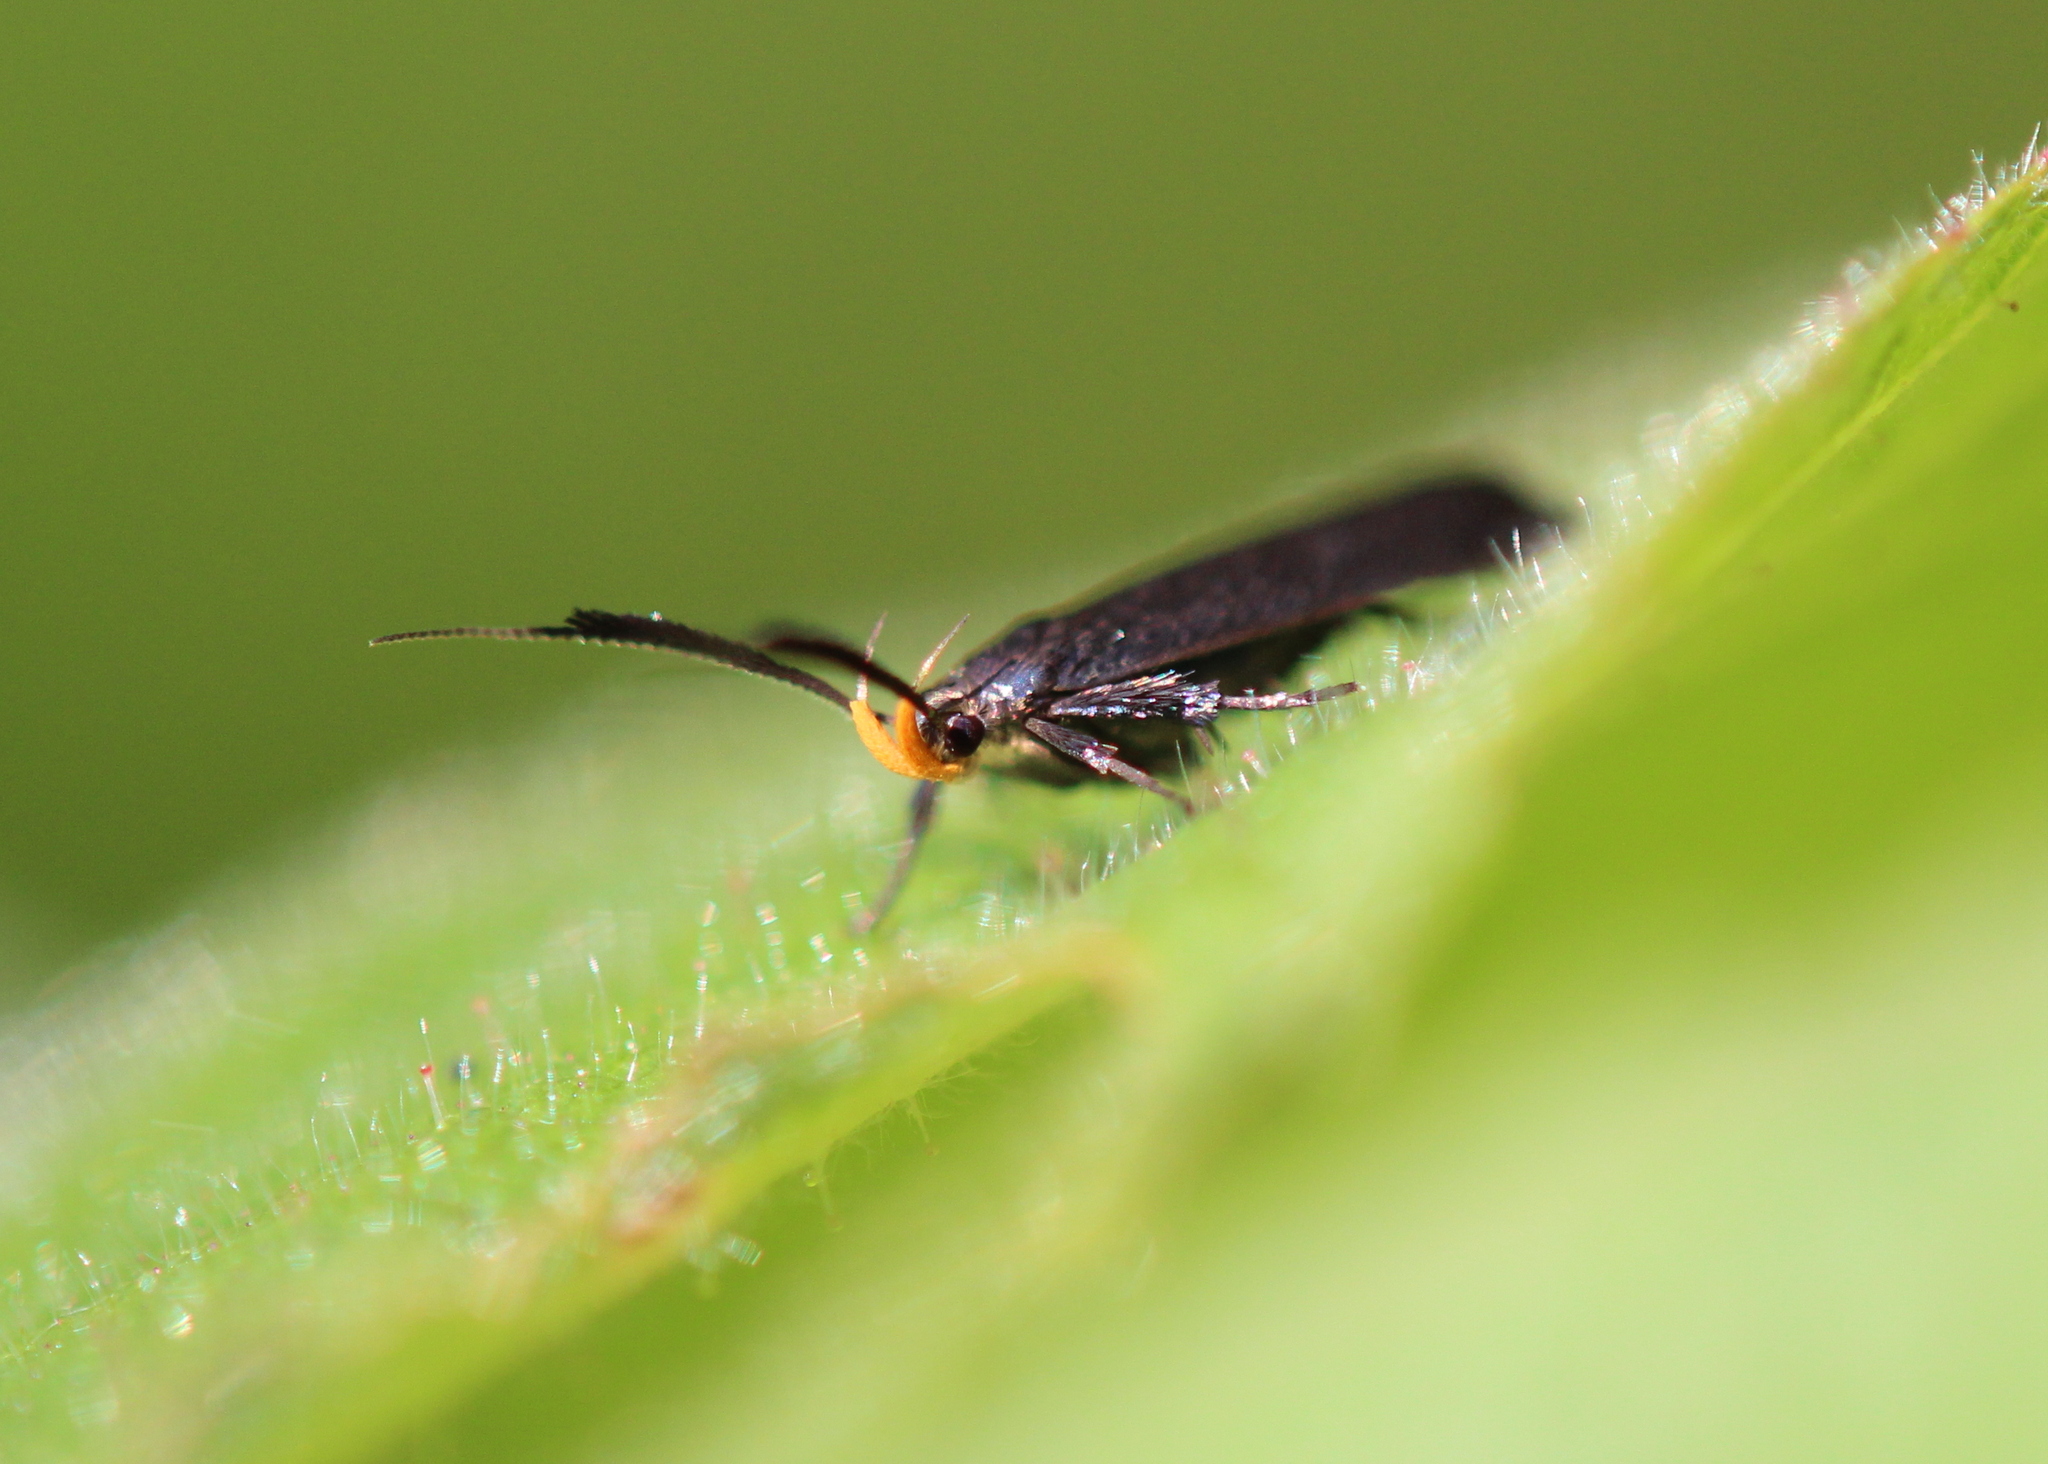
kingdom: Animalia
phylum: Arthropoda
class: Insecta
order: Lepidoptera
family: Gelechiidae
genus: Dichomeris
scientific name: Dichomeris nonstrigella
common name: Little devil moth
